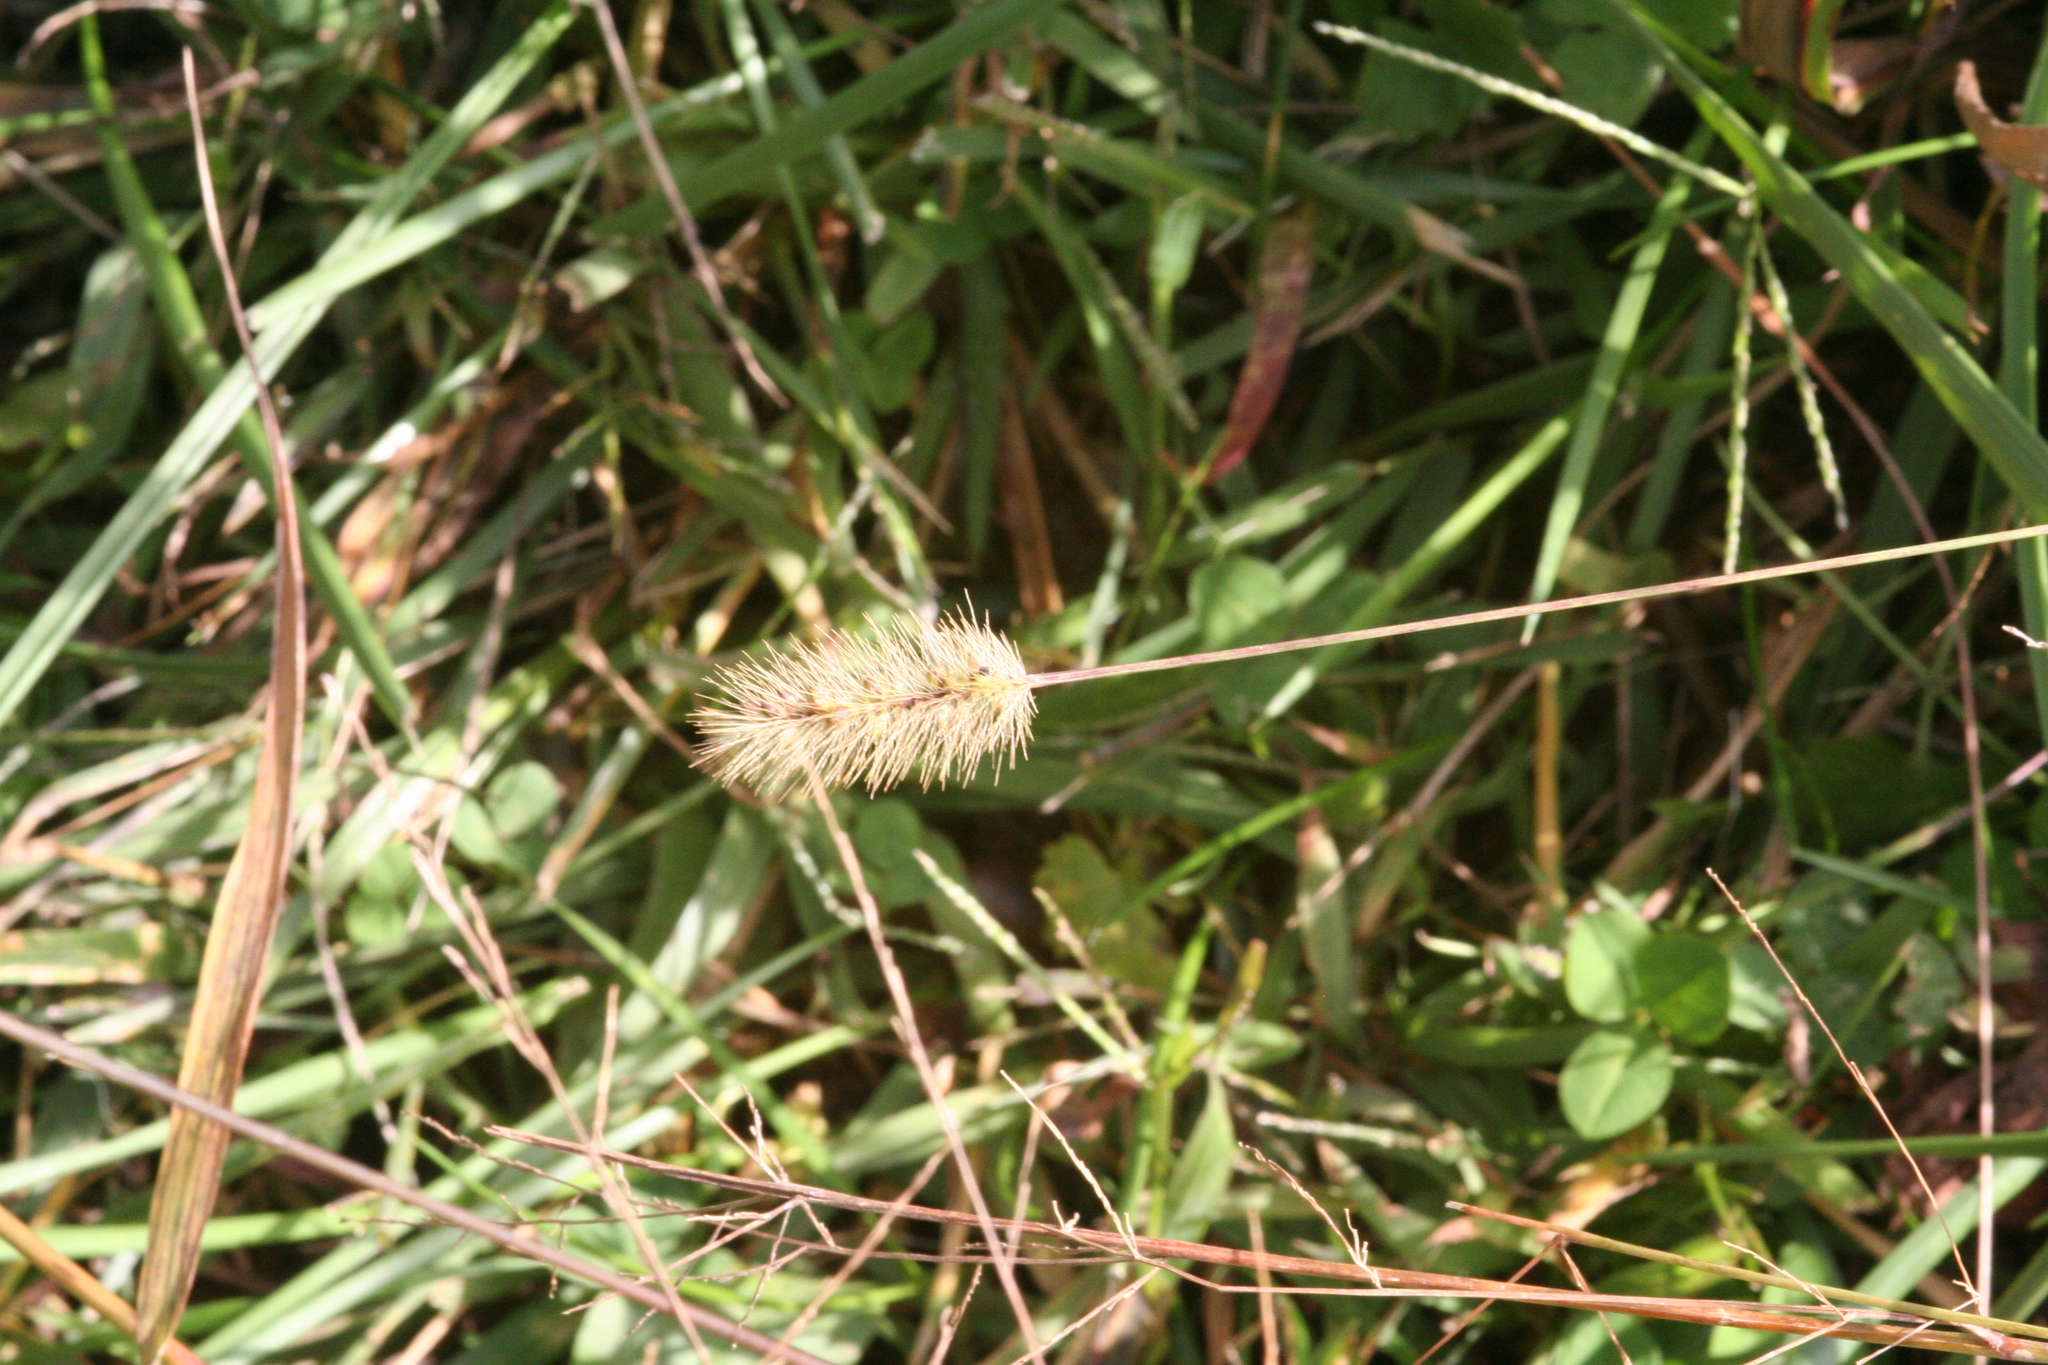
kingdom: Plantae
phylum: Tracheophyta
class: Liliopsida
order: Poales
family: Poaceae
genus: Setaria
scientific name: Setaria pumila
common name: Yellow bristle-grass
